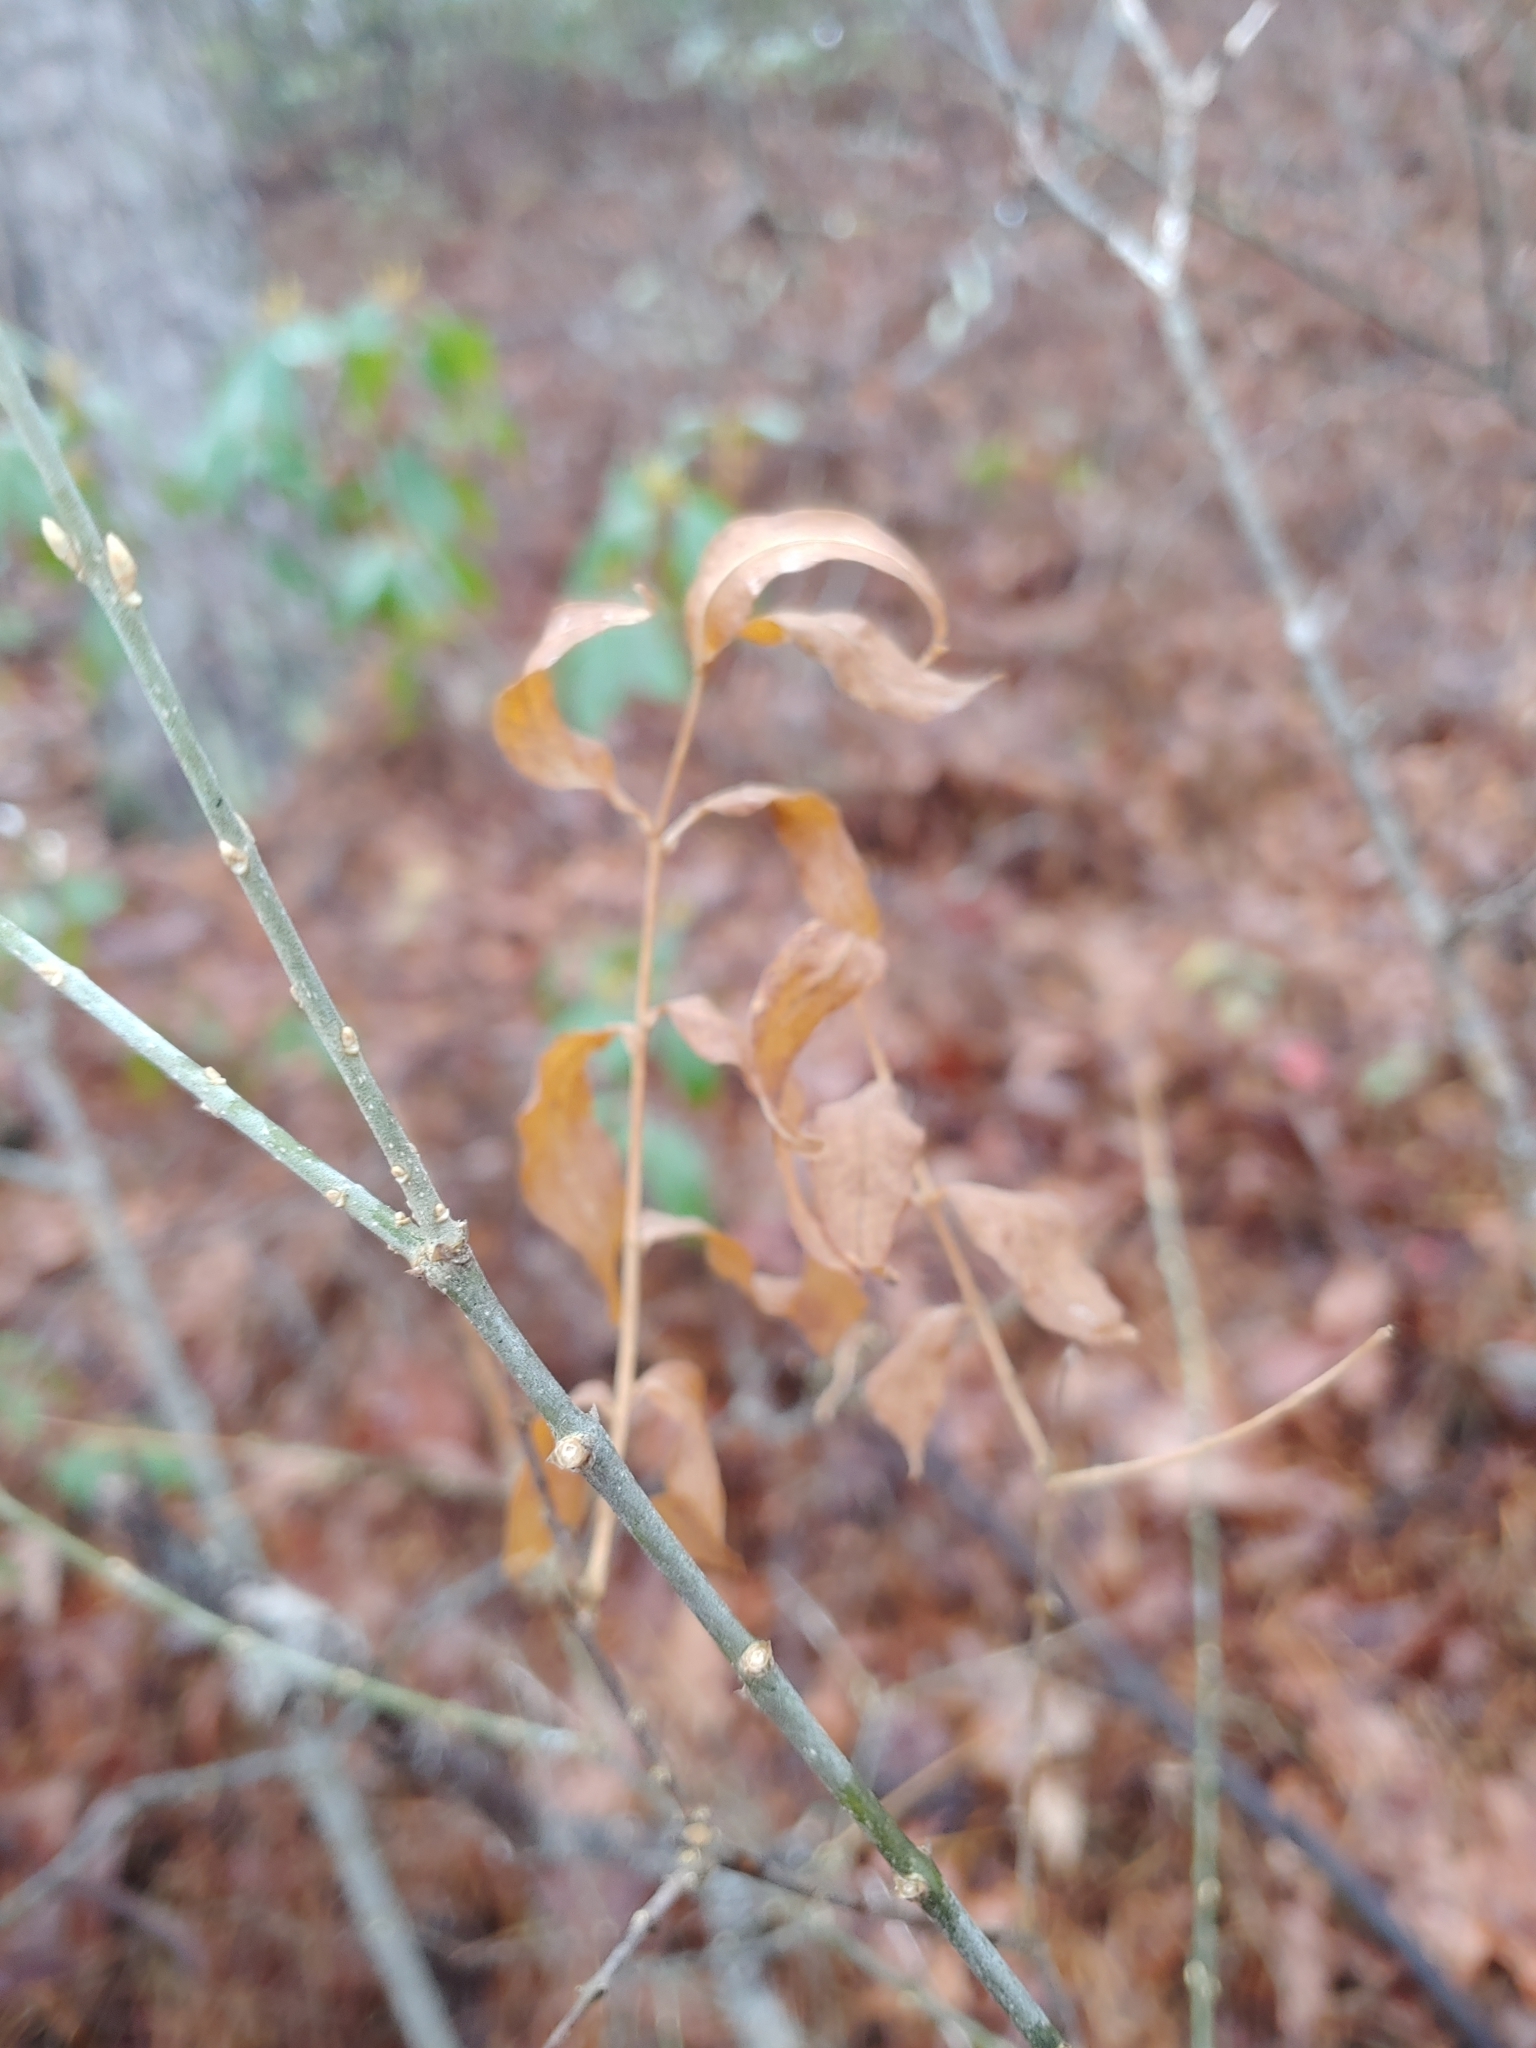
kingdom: Plantae
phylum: Tracheophyta
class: Magnoliopsida
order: Santalales
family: Thesiaceae
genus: Buckleya
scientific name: Buckleya distichophylla
